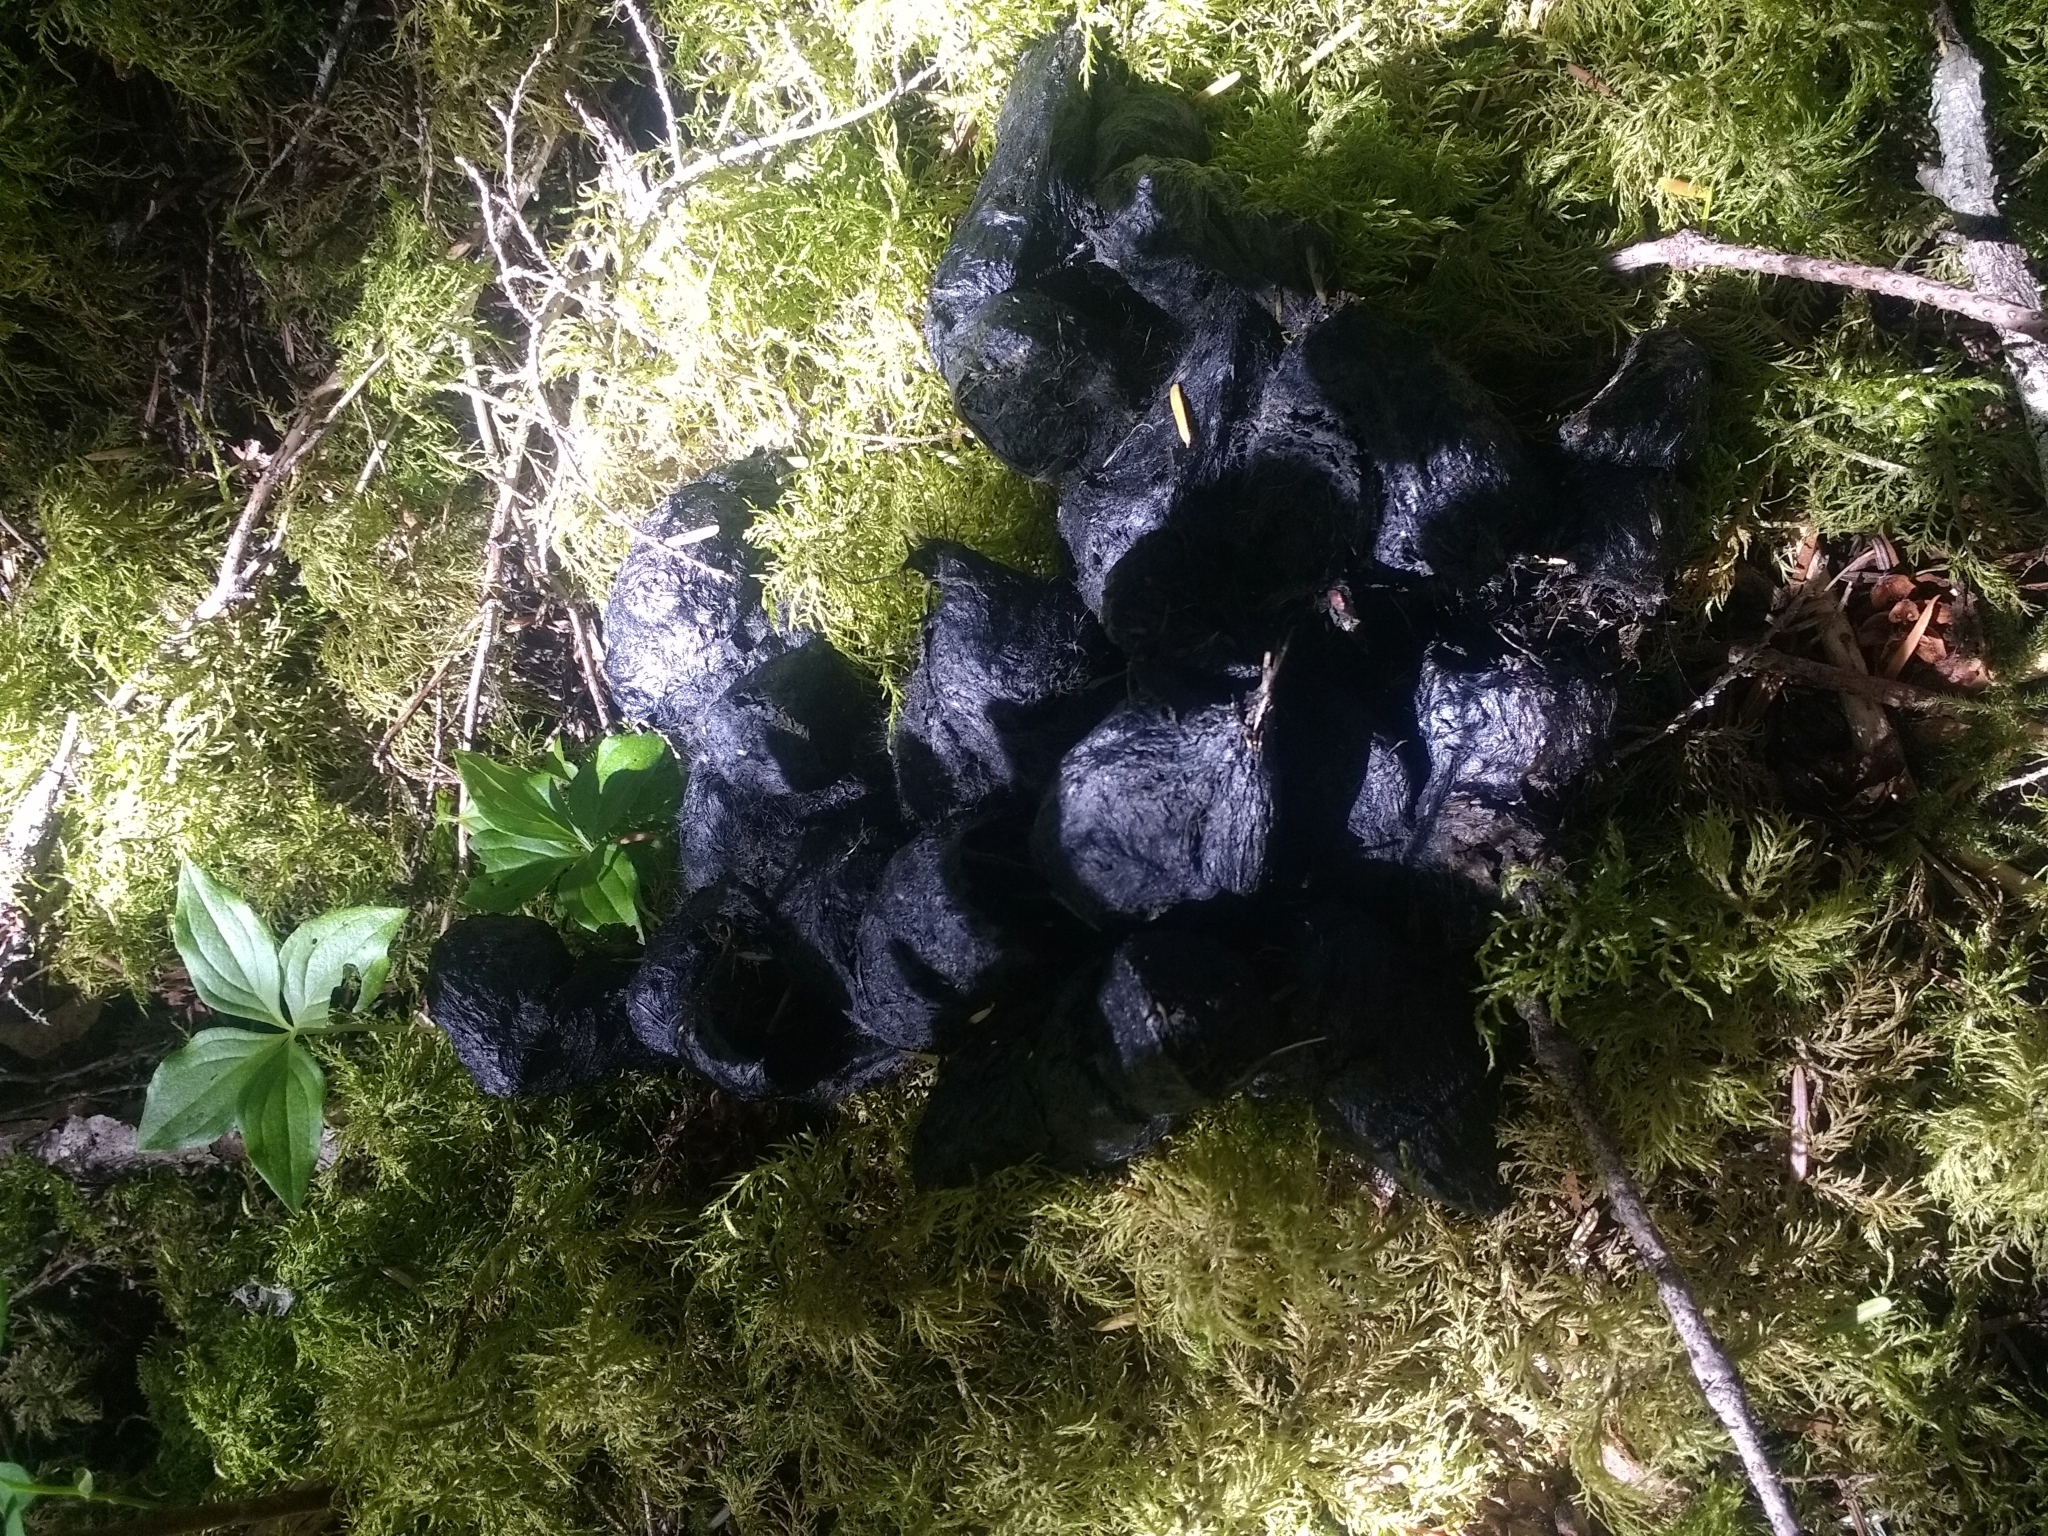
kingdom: Animalia
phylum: Chordata
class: Mammalia
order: Carnivora
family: Ursidae
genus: Ursus
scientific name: Ursus americanus
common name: American black bear
